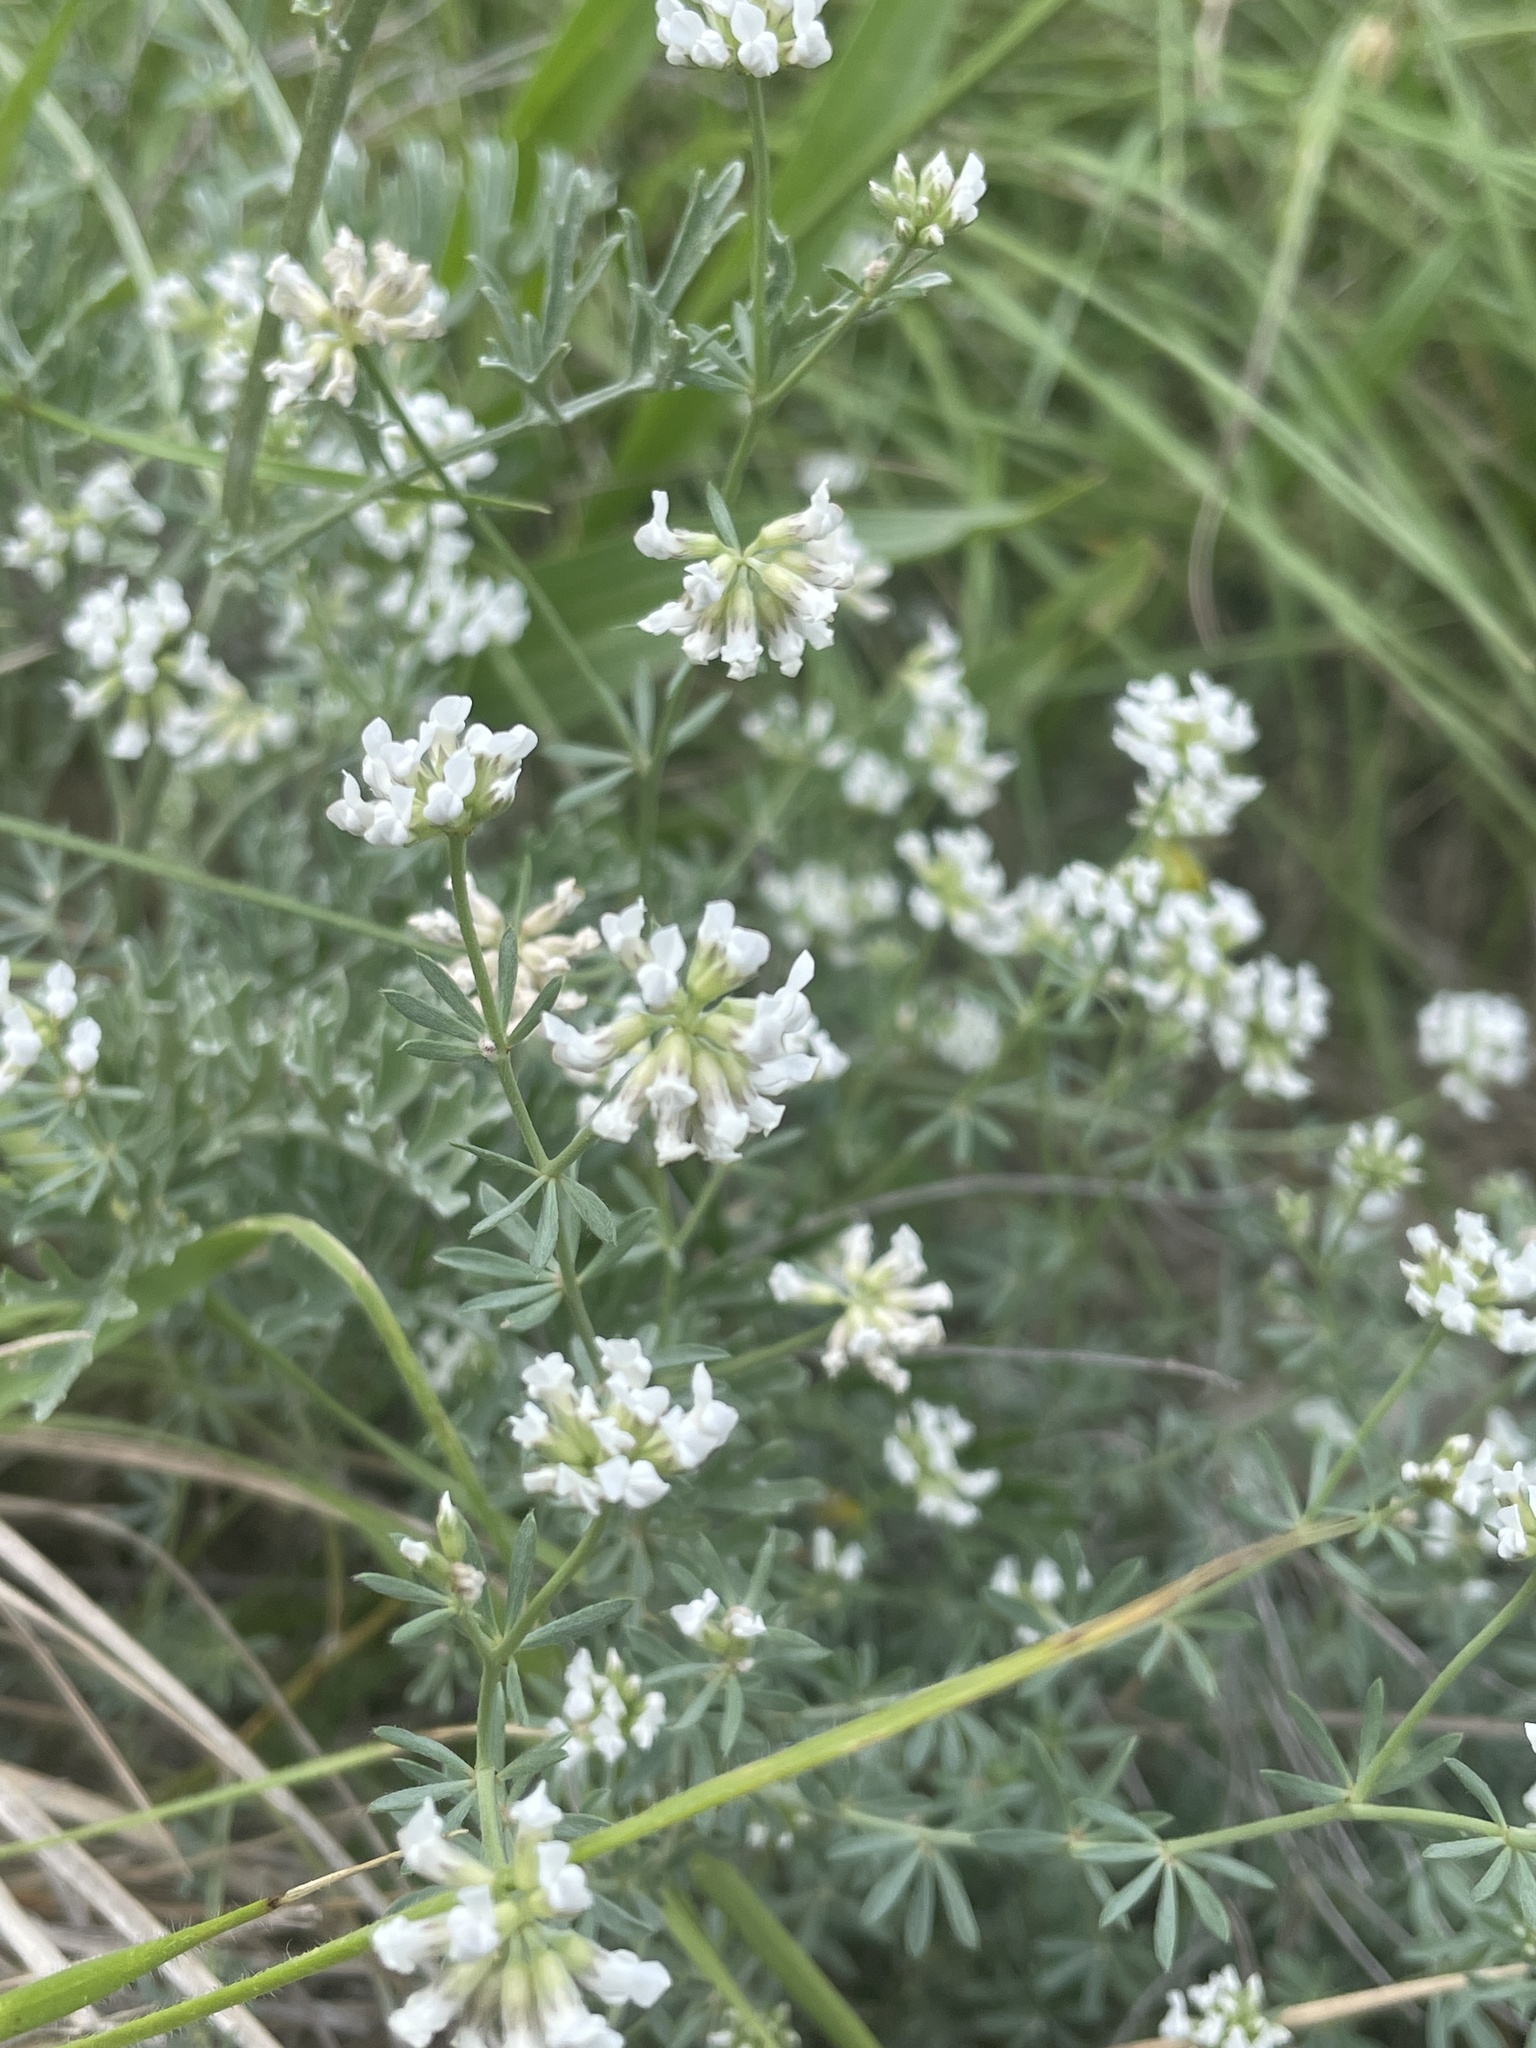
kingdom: Plantae
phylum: Tracheophyta
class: Magnoliopsida
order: Fabales
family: Fabaceae
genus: Lotus
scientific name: Lotus dorycnium
